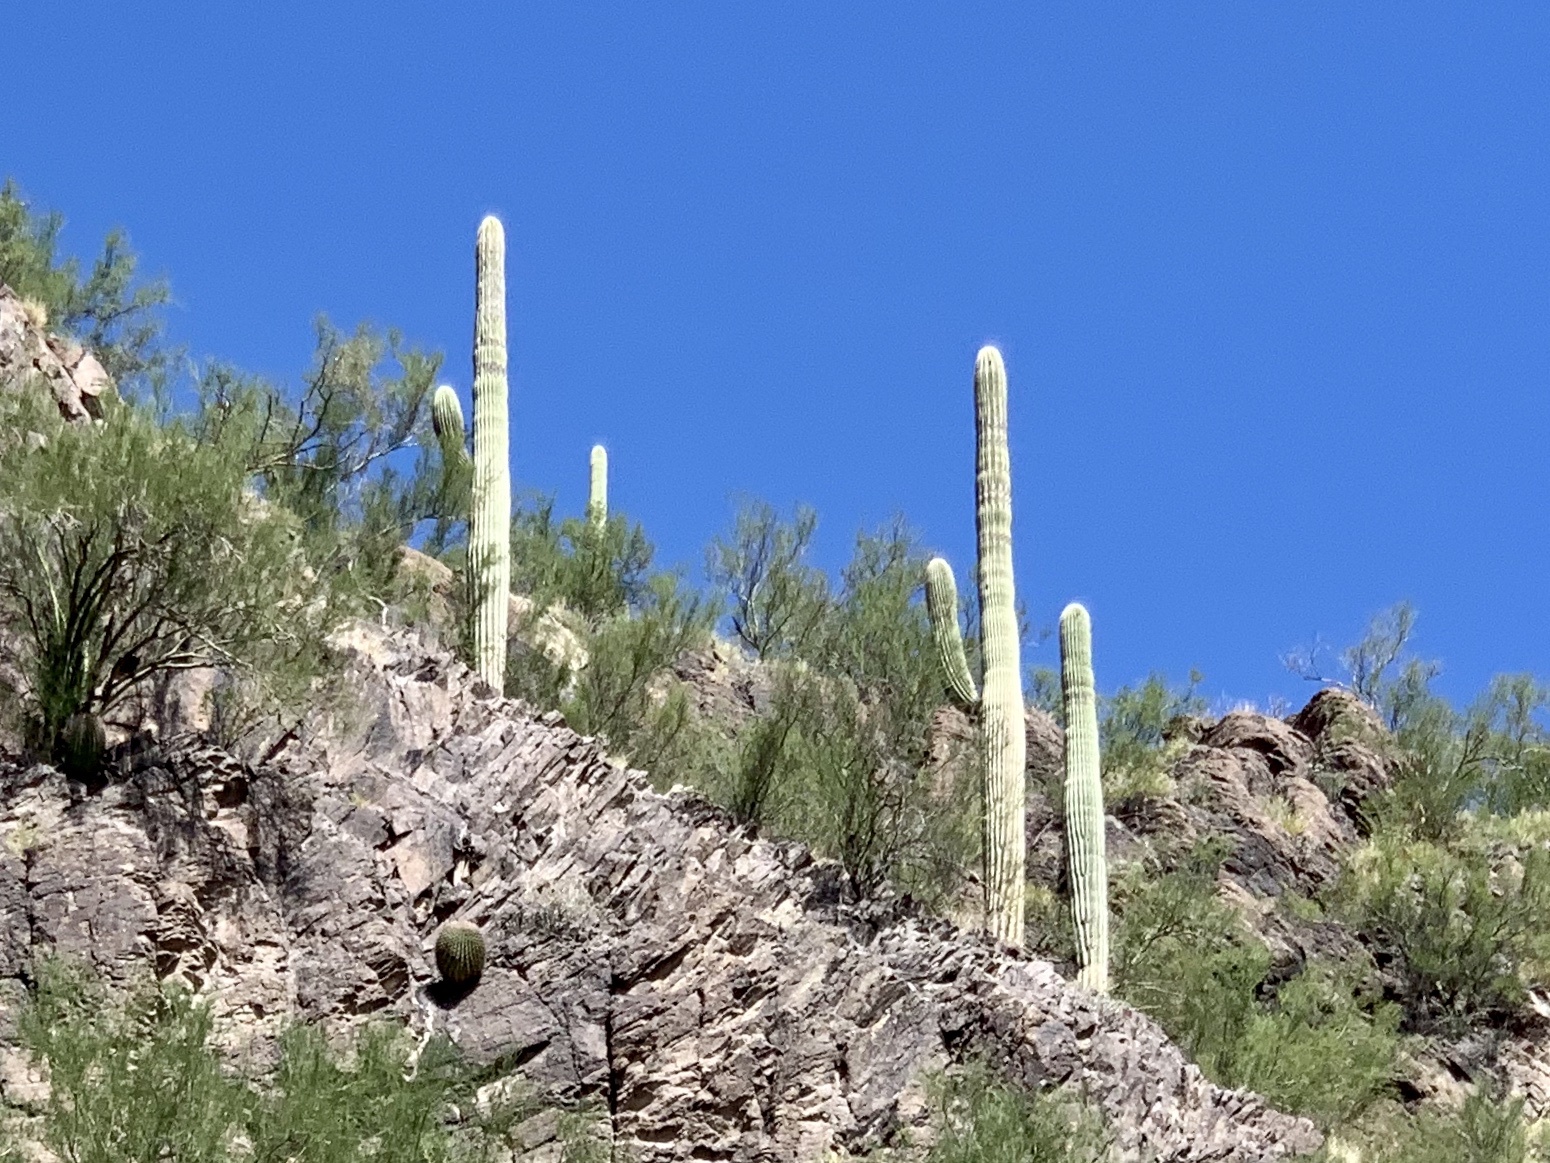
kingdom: Plantae
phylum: Tracheophyta
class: Magnoliopsida
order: Caryophyllales
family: Cactaceae
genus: Carnegiea
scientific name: Carnegiea gigantea
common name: Saguaro
